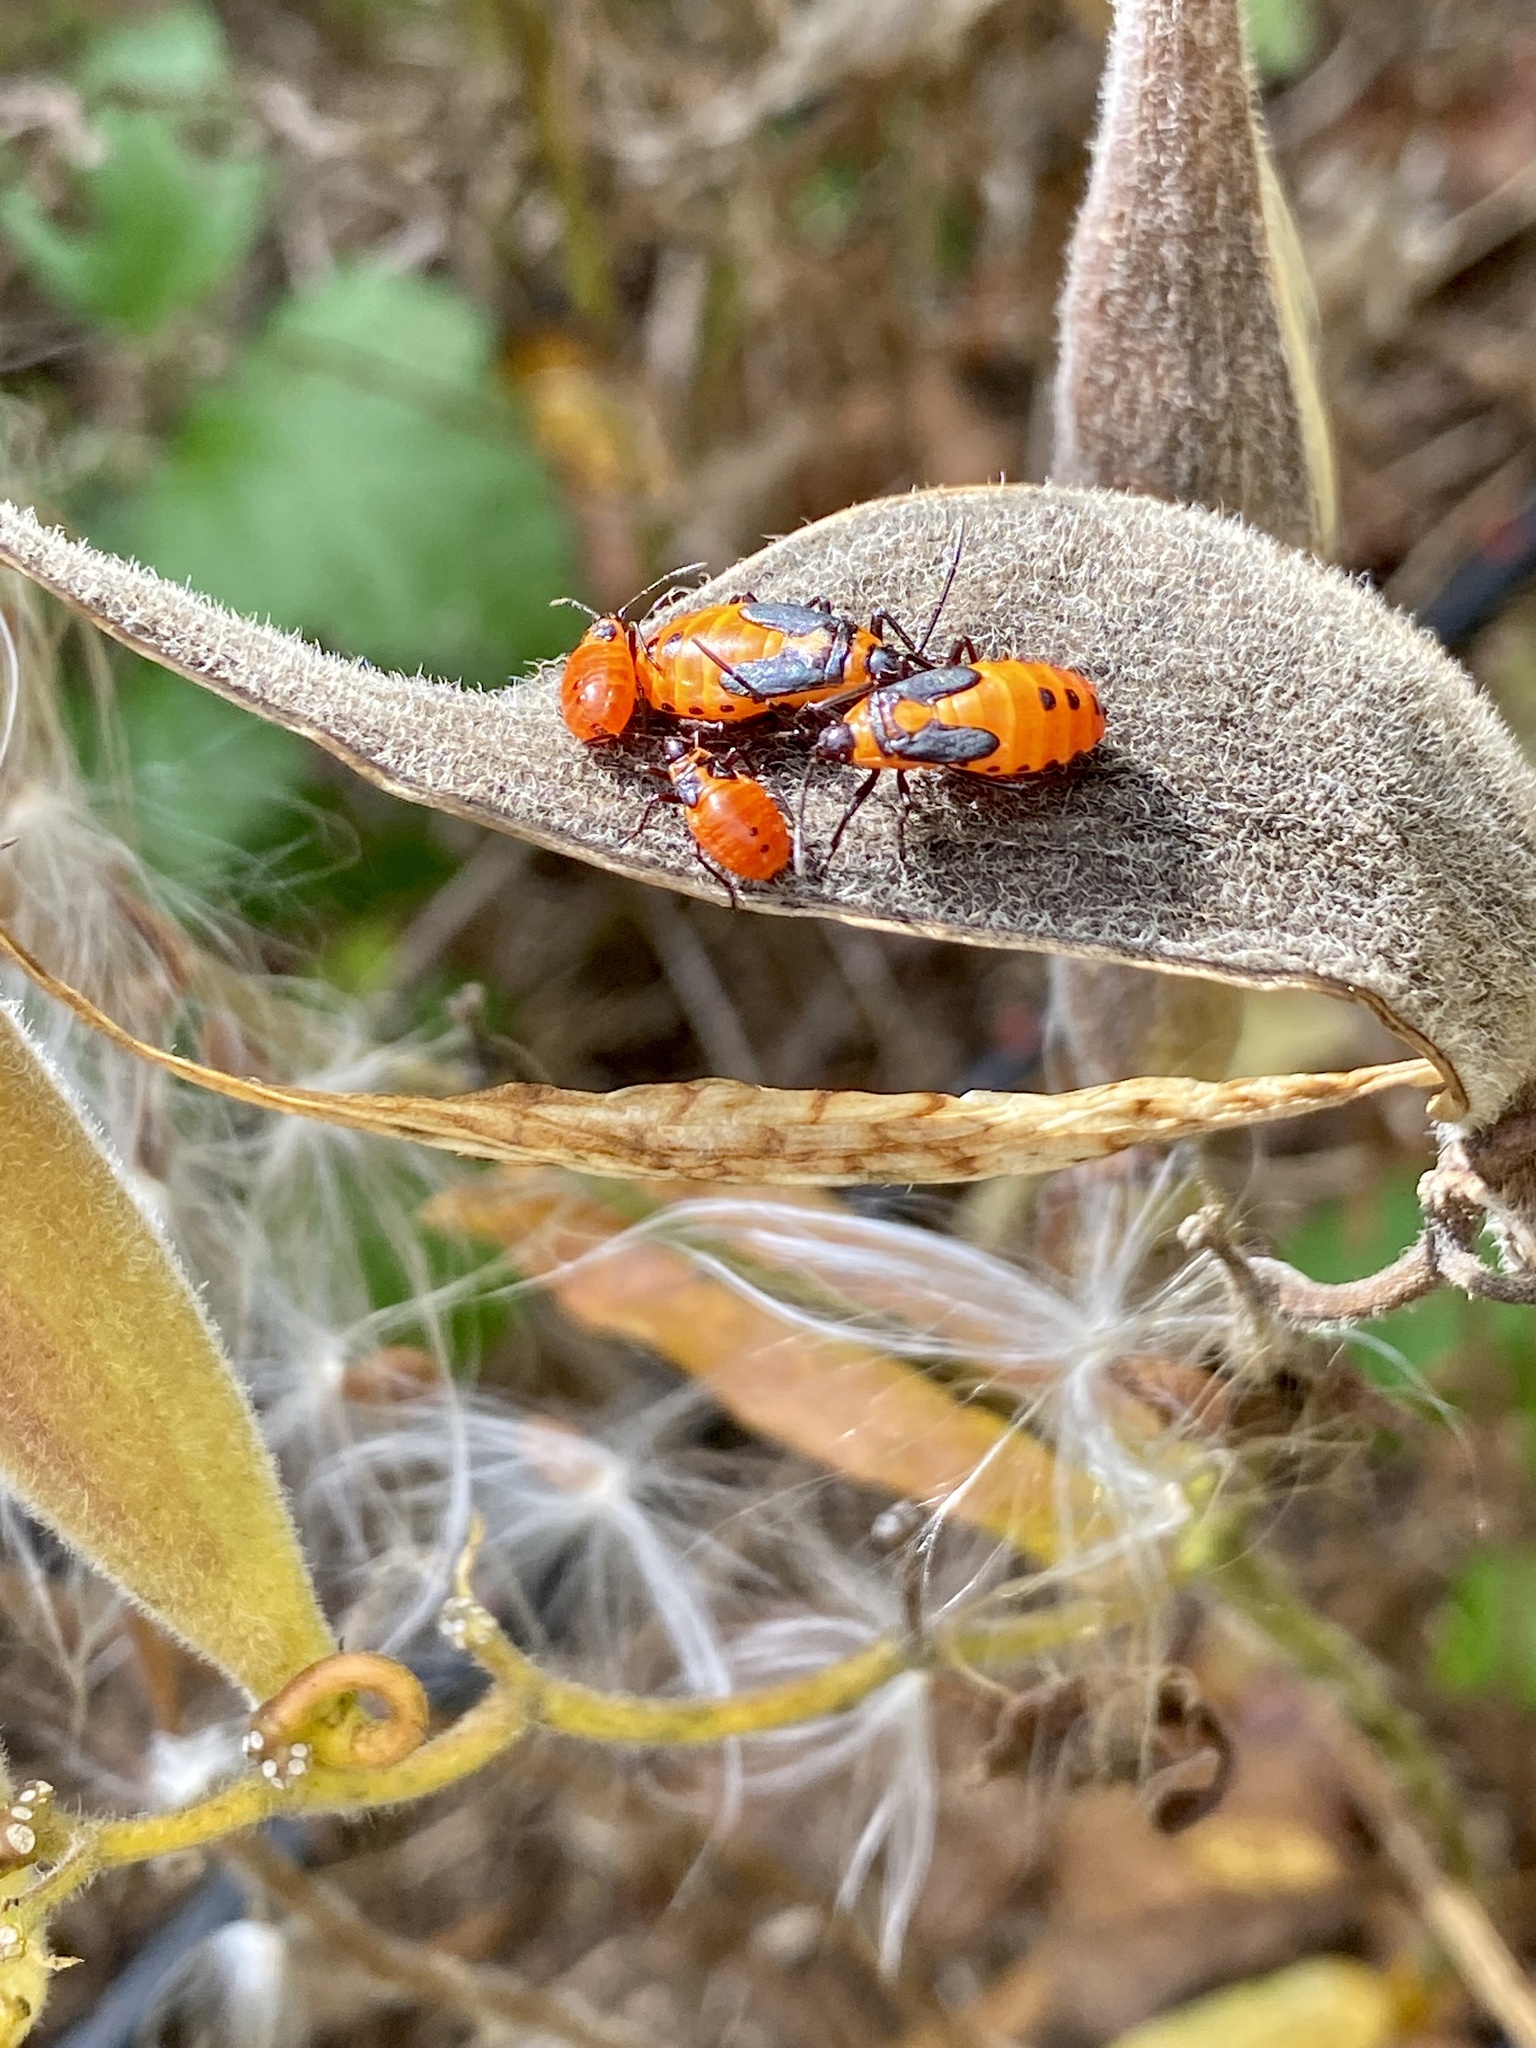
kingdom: Animalia
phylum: Arthropoda
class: Insecta
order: Hemiptera
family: Lygaeidae
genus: Oncopeltus
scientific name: Oncopeltus fasciatus
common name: Large milkweed bug
